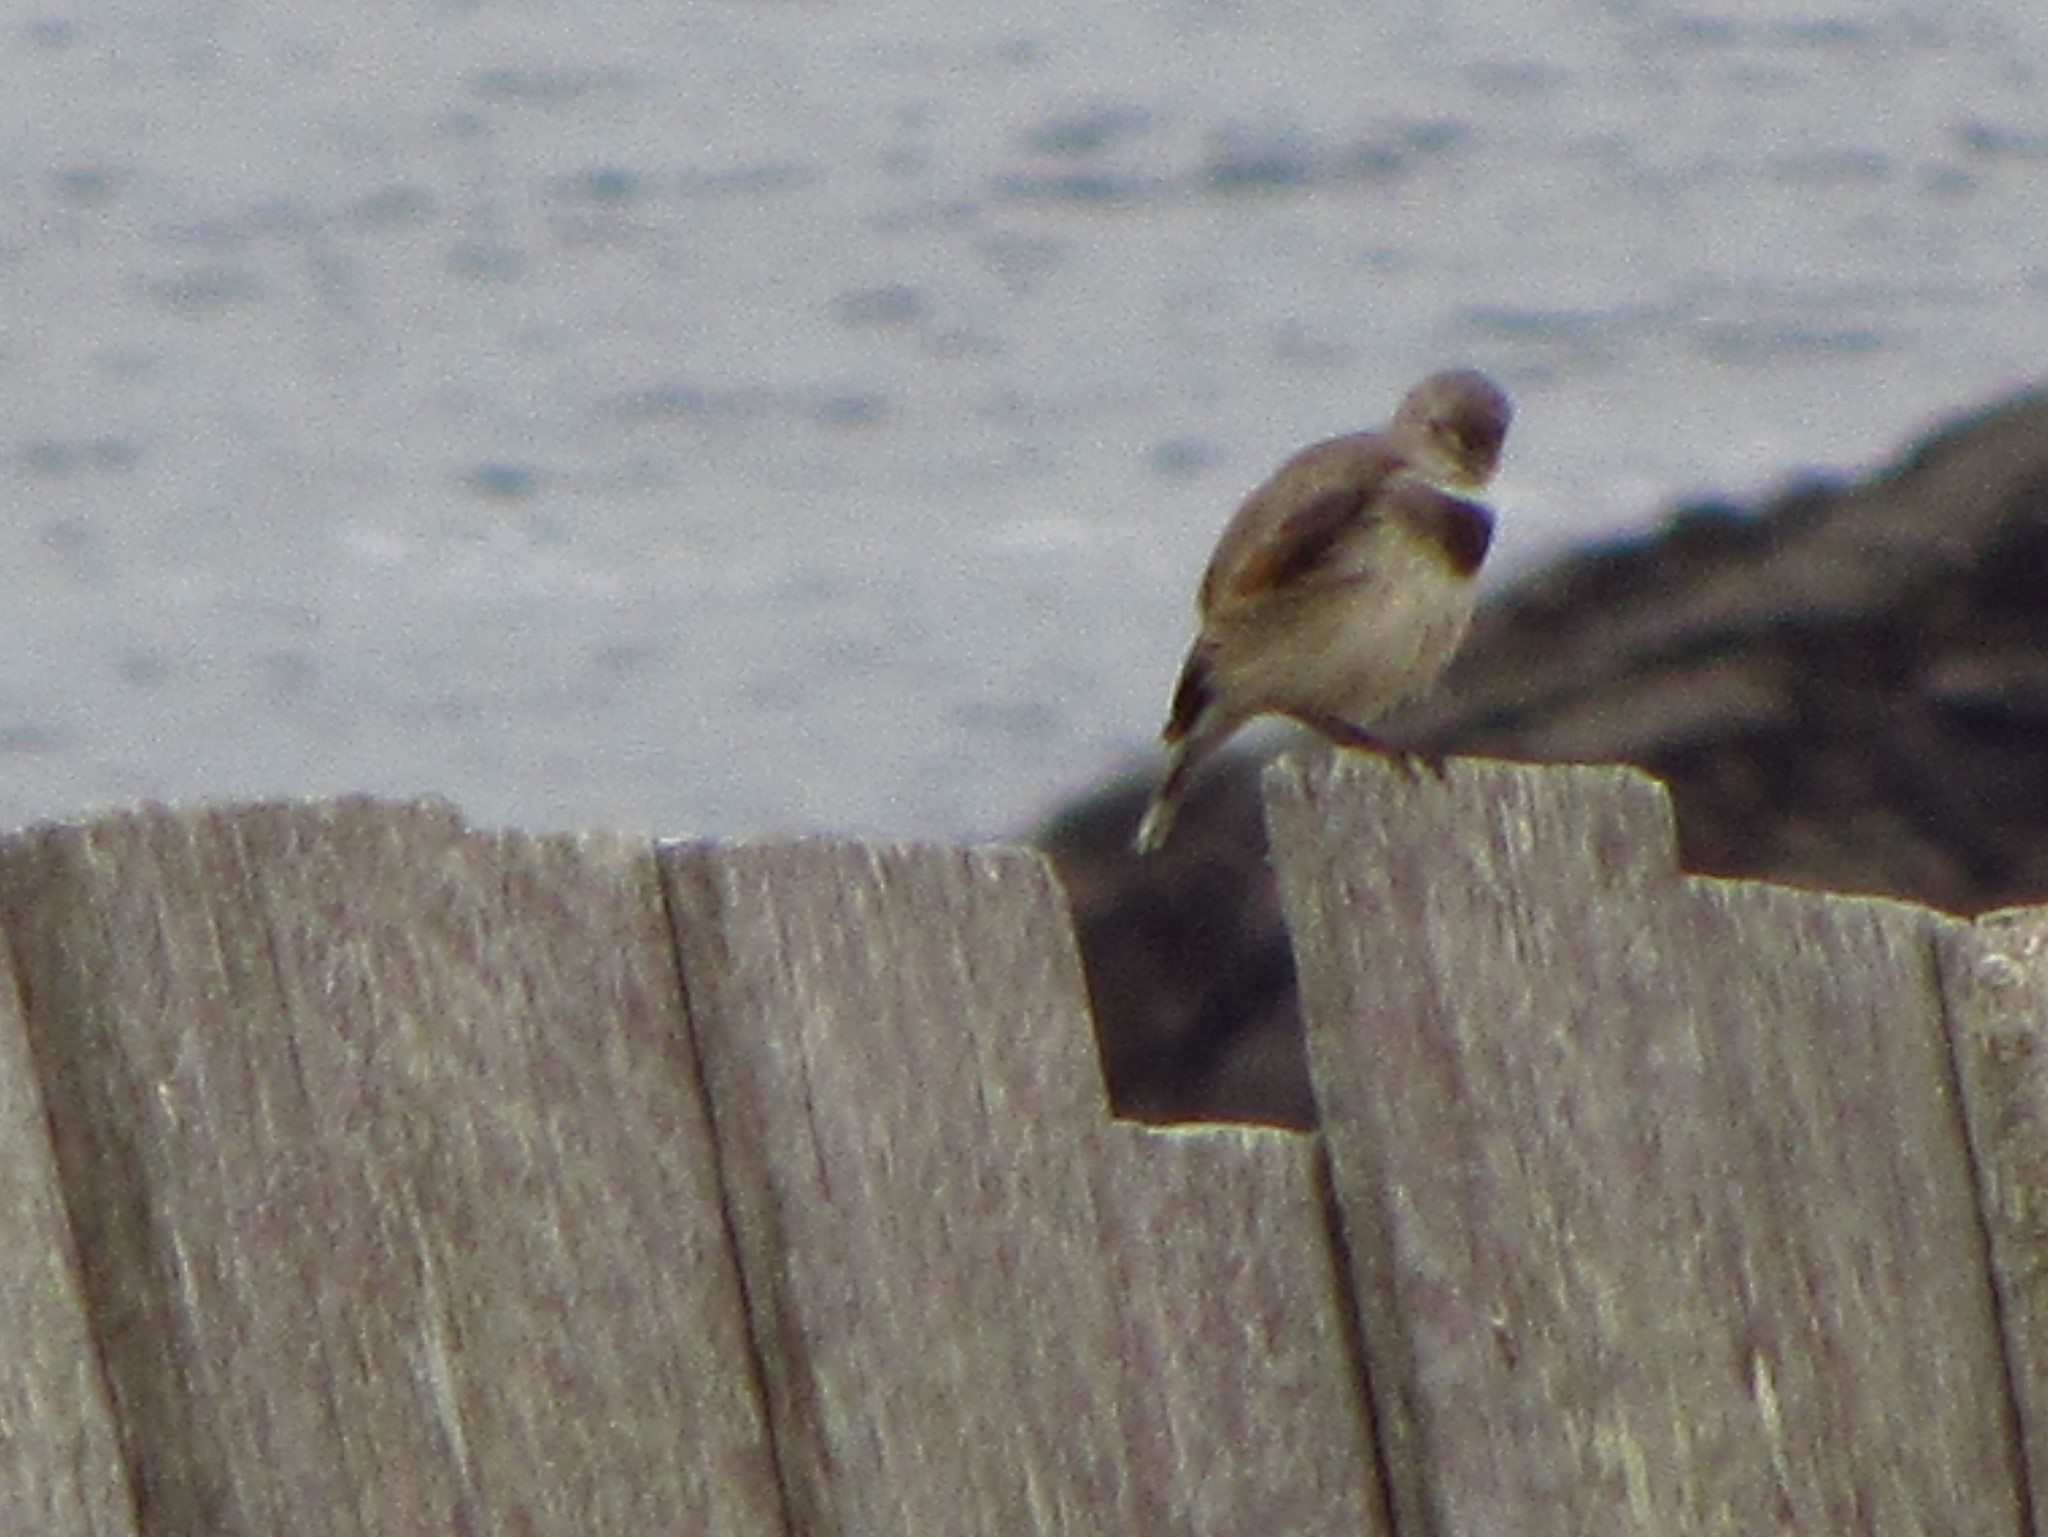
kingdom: Animalia
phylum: Chordata
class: Aves
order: Passeriformes
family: Meliphagidae
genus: Epthianura
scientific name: Epthianura albifrons
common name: White-fronted chat
